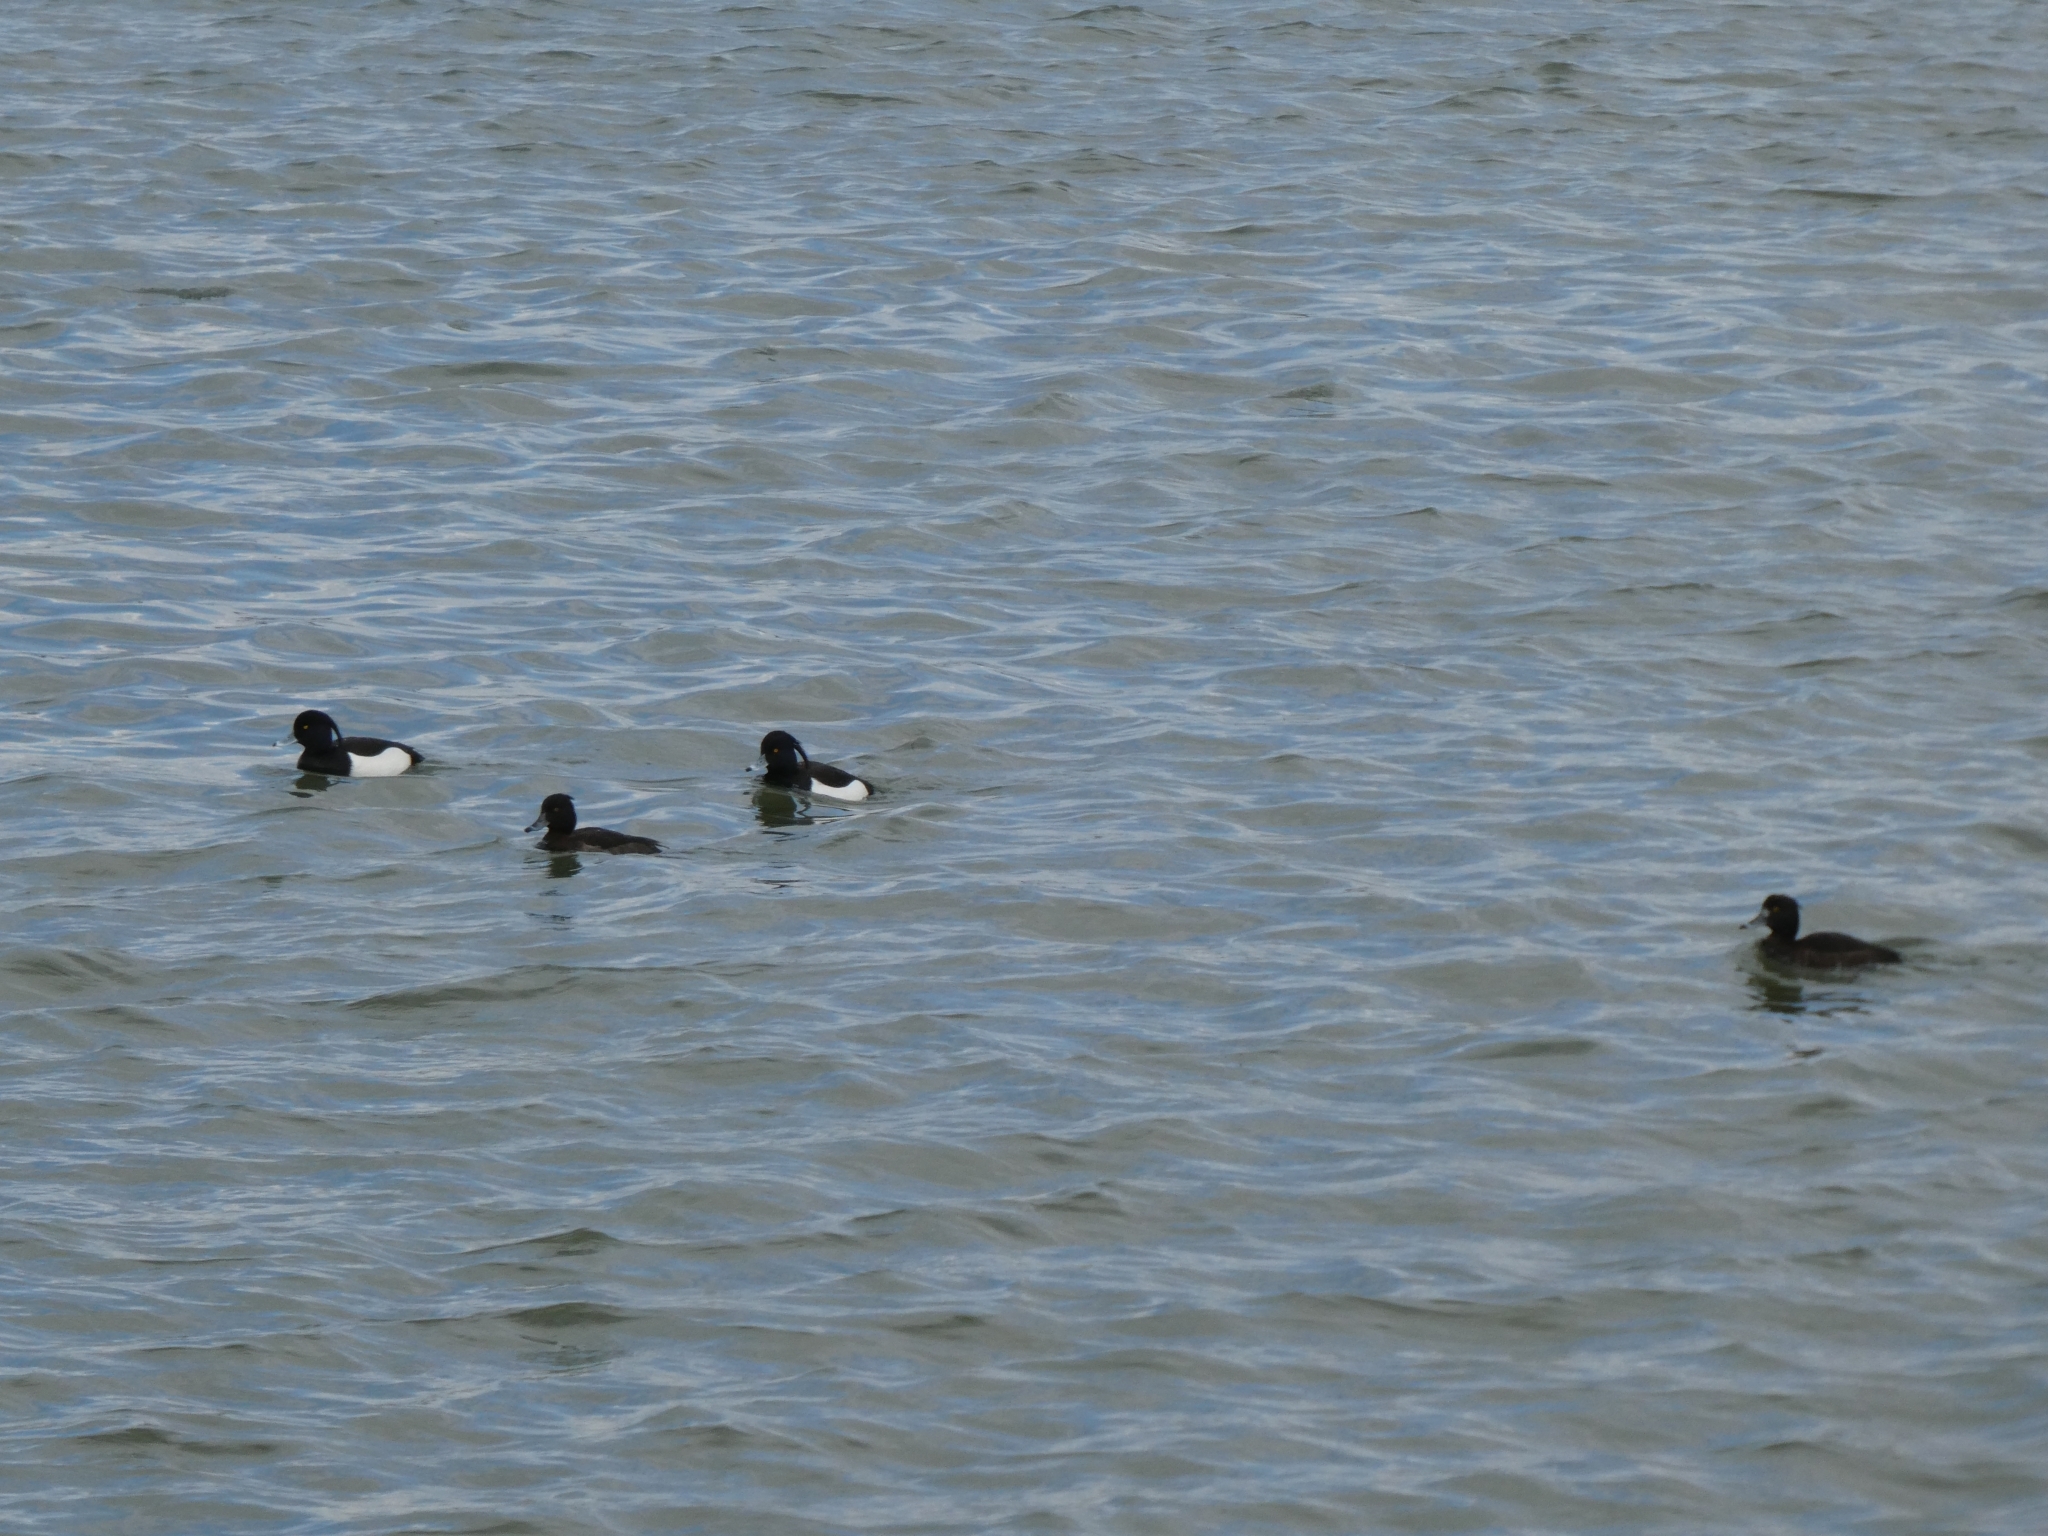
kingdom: Animalia
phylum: Chordata
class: Aves
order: Anseriformes
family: Anatidae
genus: Aythya
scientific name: Aythya fuligula
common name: Tufted duck
